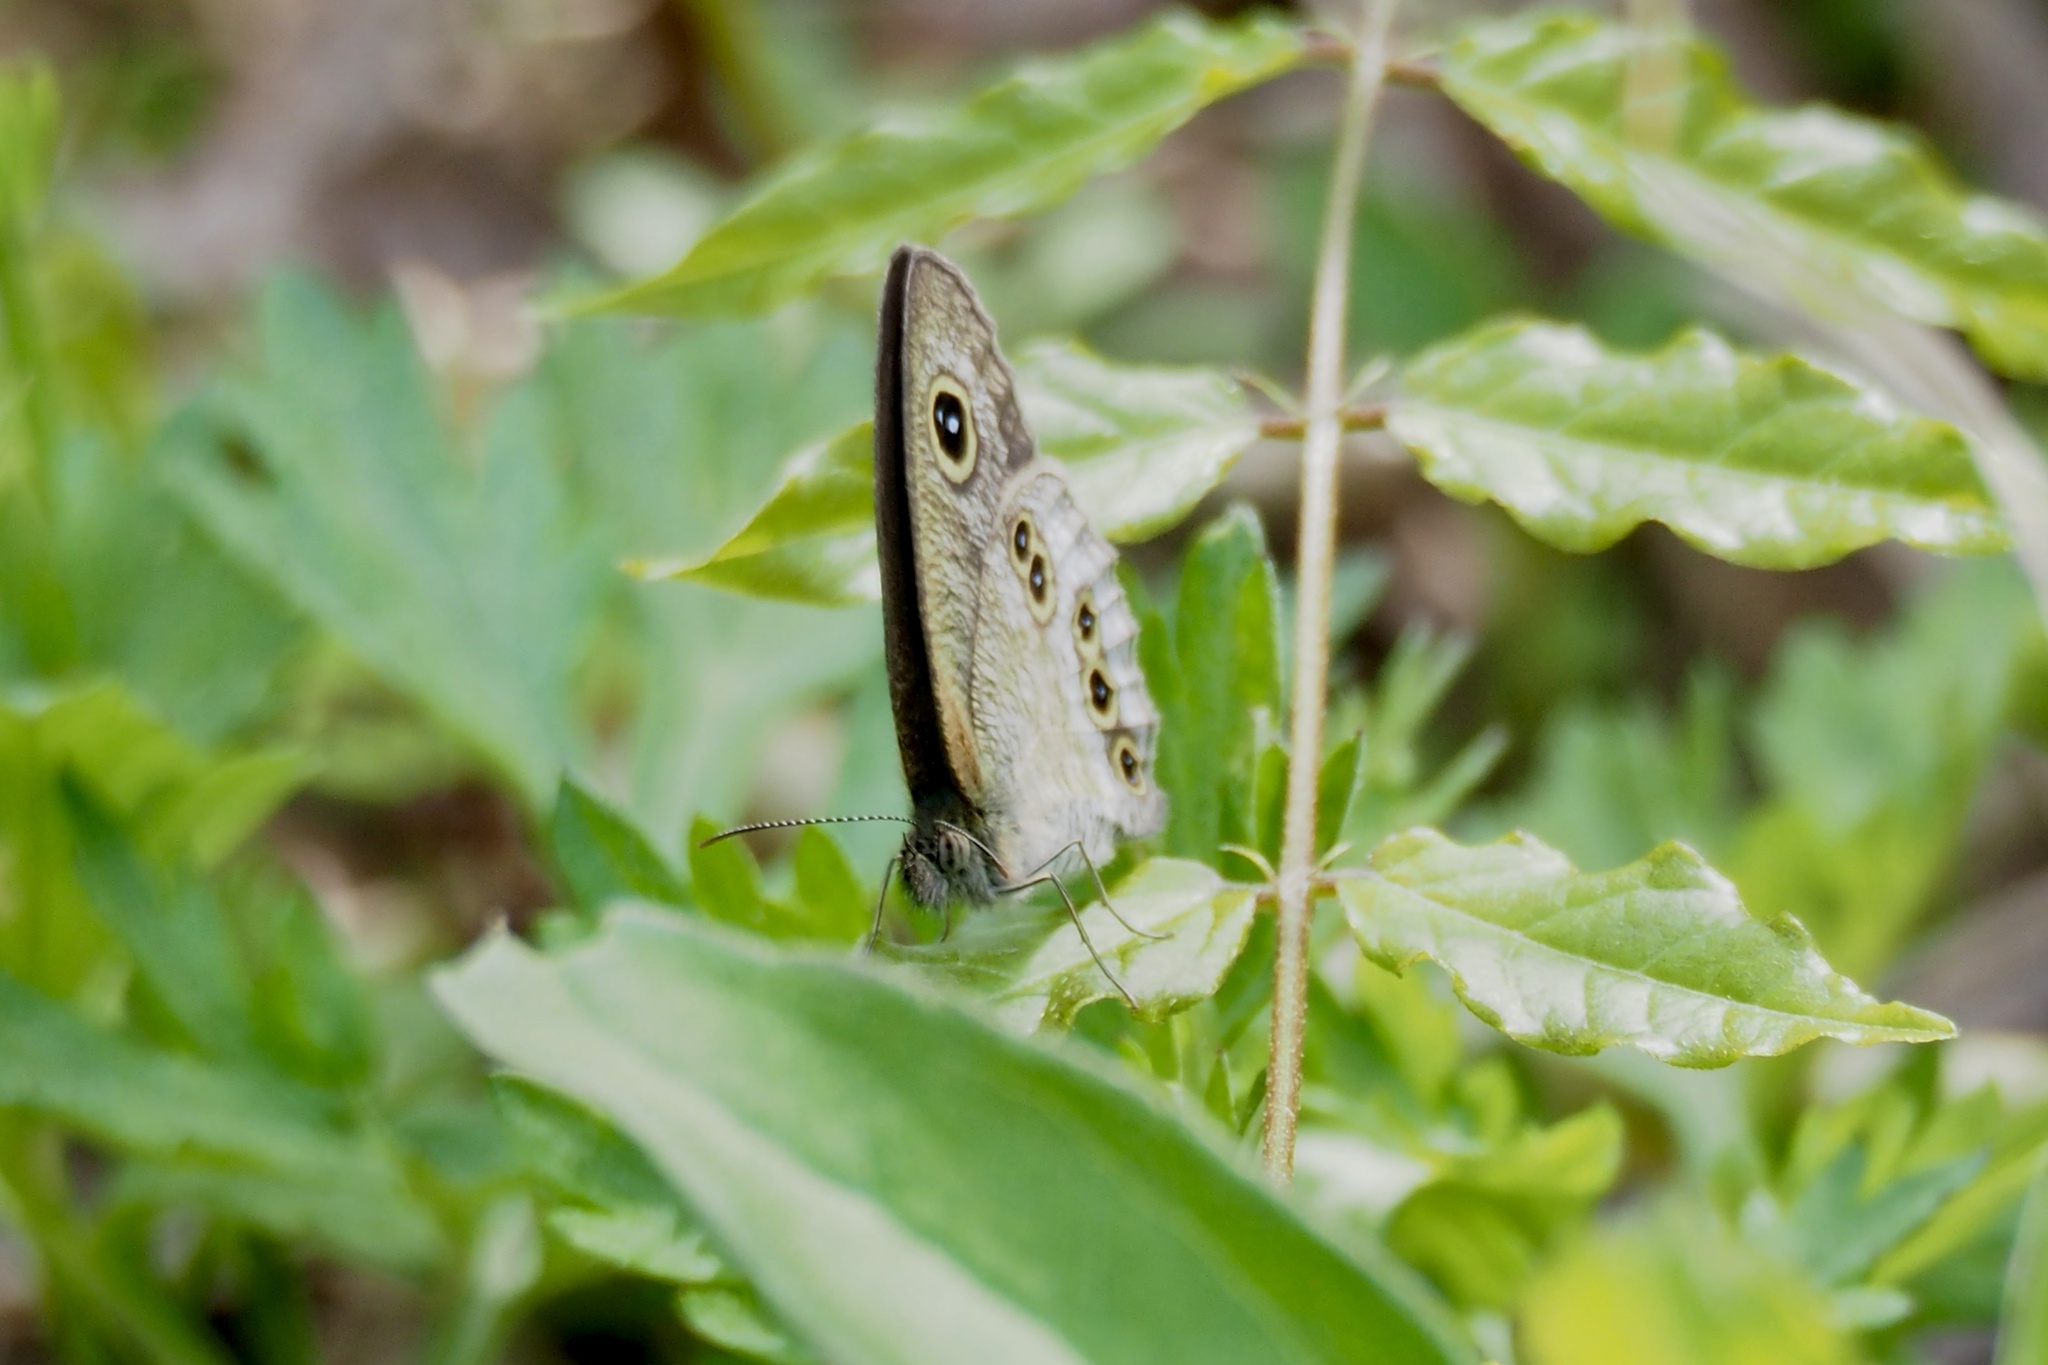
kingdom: Animalia
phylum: Arthropoda
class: Insecta
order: Lepidoptera
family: Nymphalidae
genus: Ypthima
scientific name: Ypthima argus
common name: Common fivering
